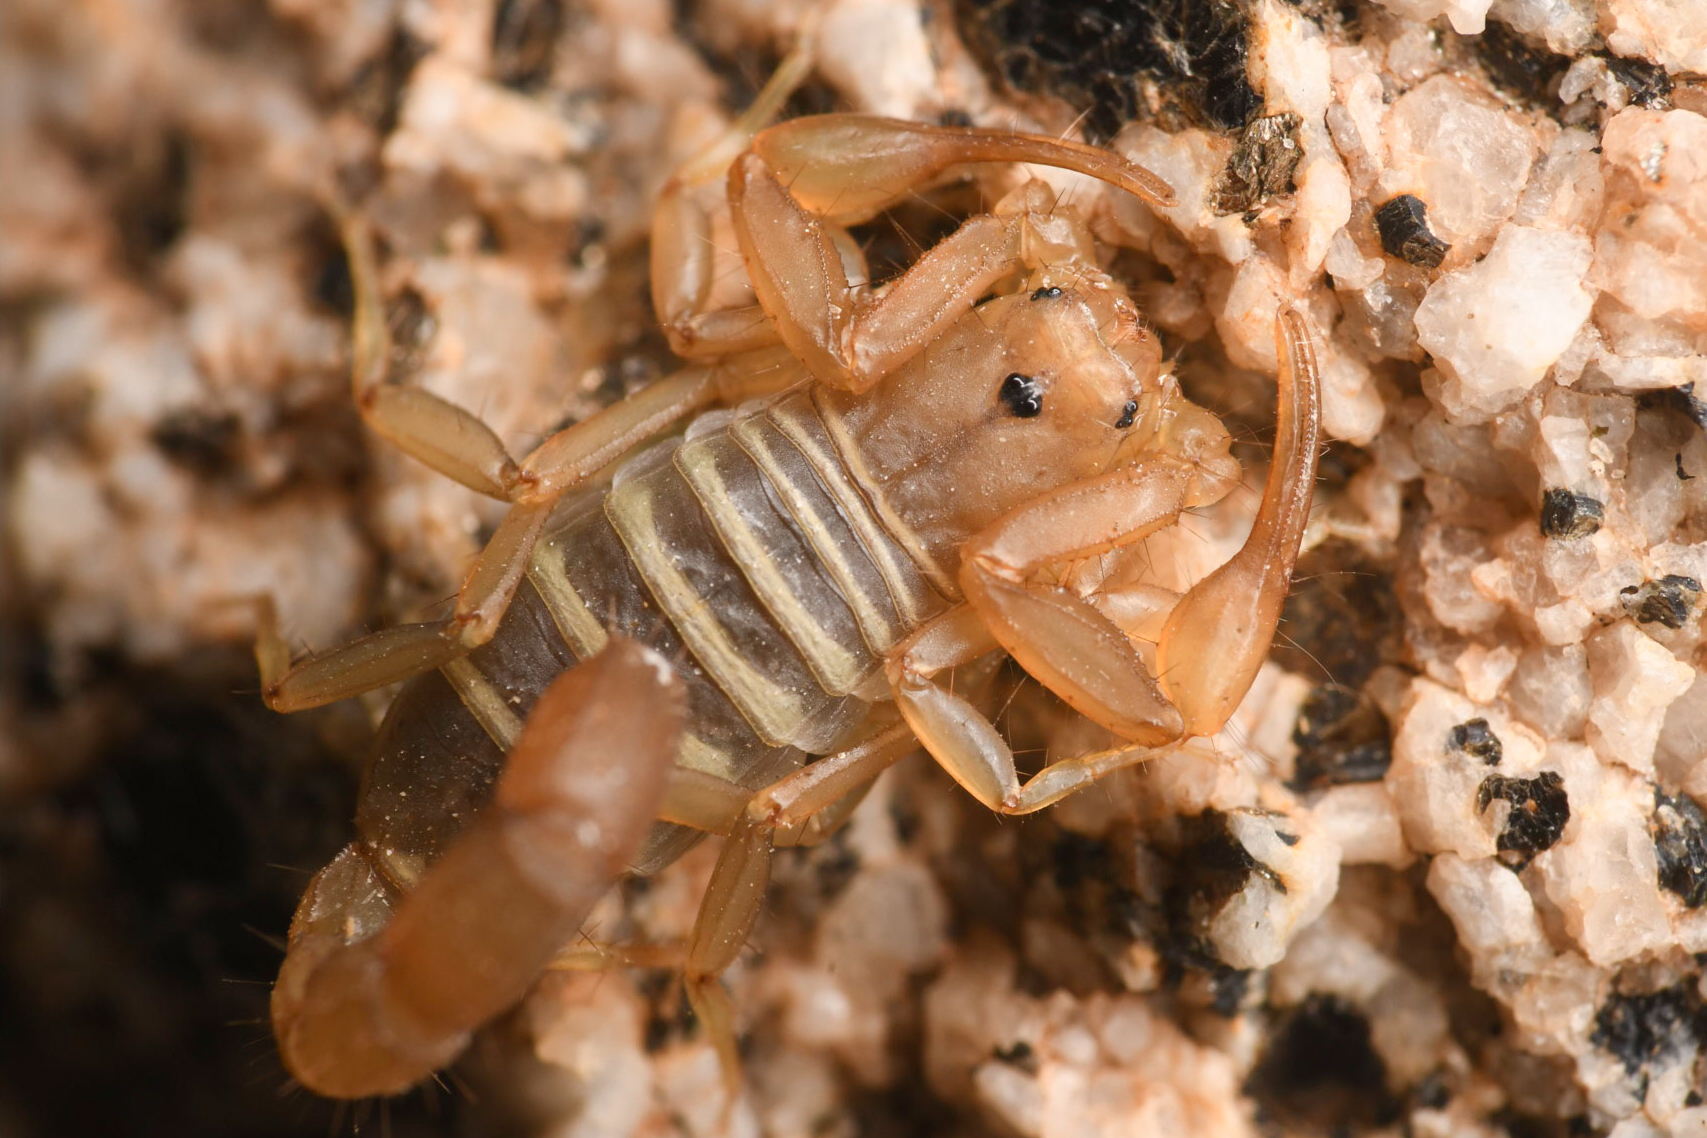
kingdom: Animalia
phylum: Arthropoda
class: Arachnida
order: Scorpiones
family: Vaejovidae
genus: Serradigitus
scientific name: Serradigitus joshuaensis
